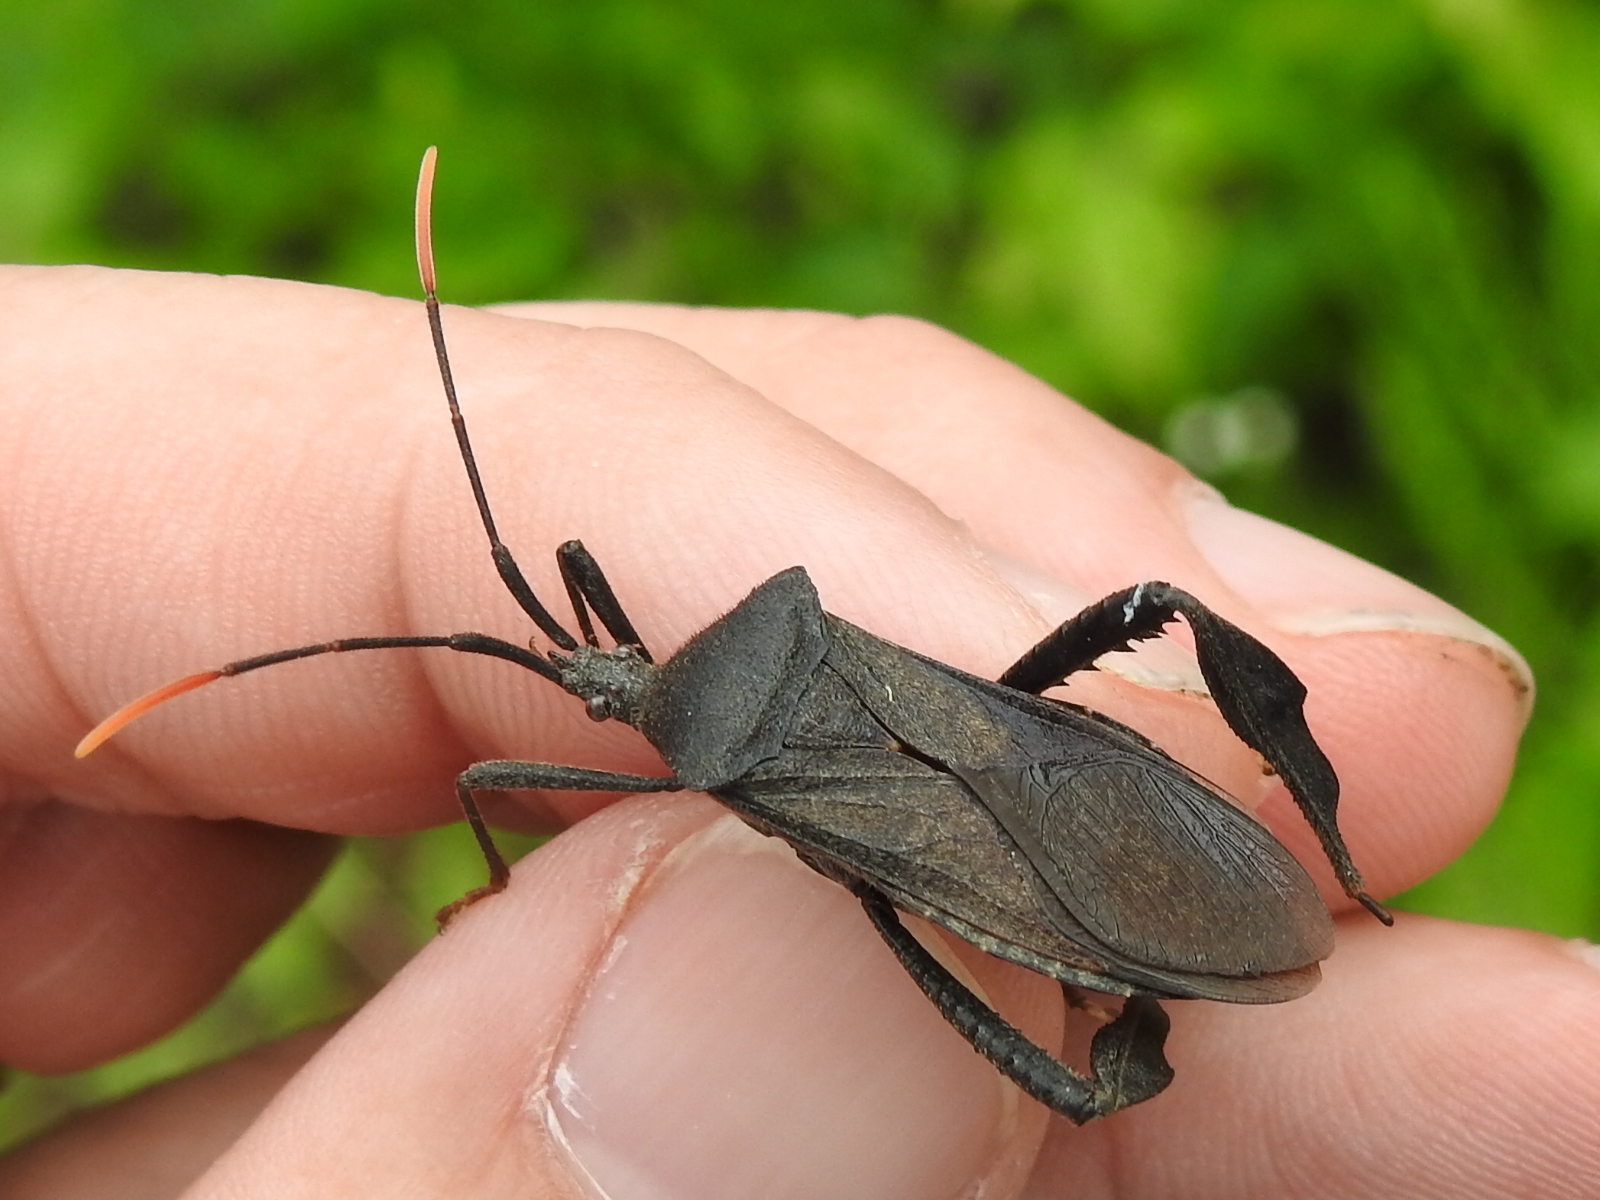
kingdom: Animalia
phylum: Arthropoda
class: Insecta
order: Hemiptera
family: Coreidae
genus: Acanthocephala
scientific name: Acanthocephala terminalis
